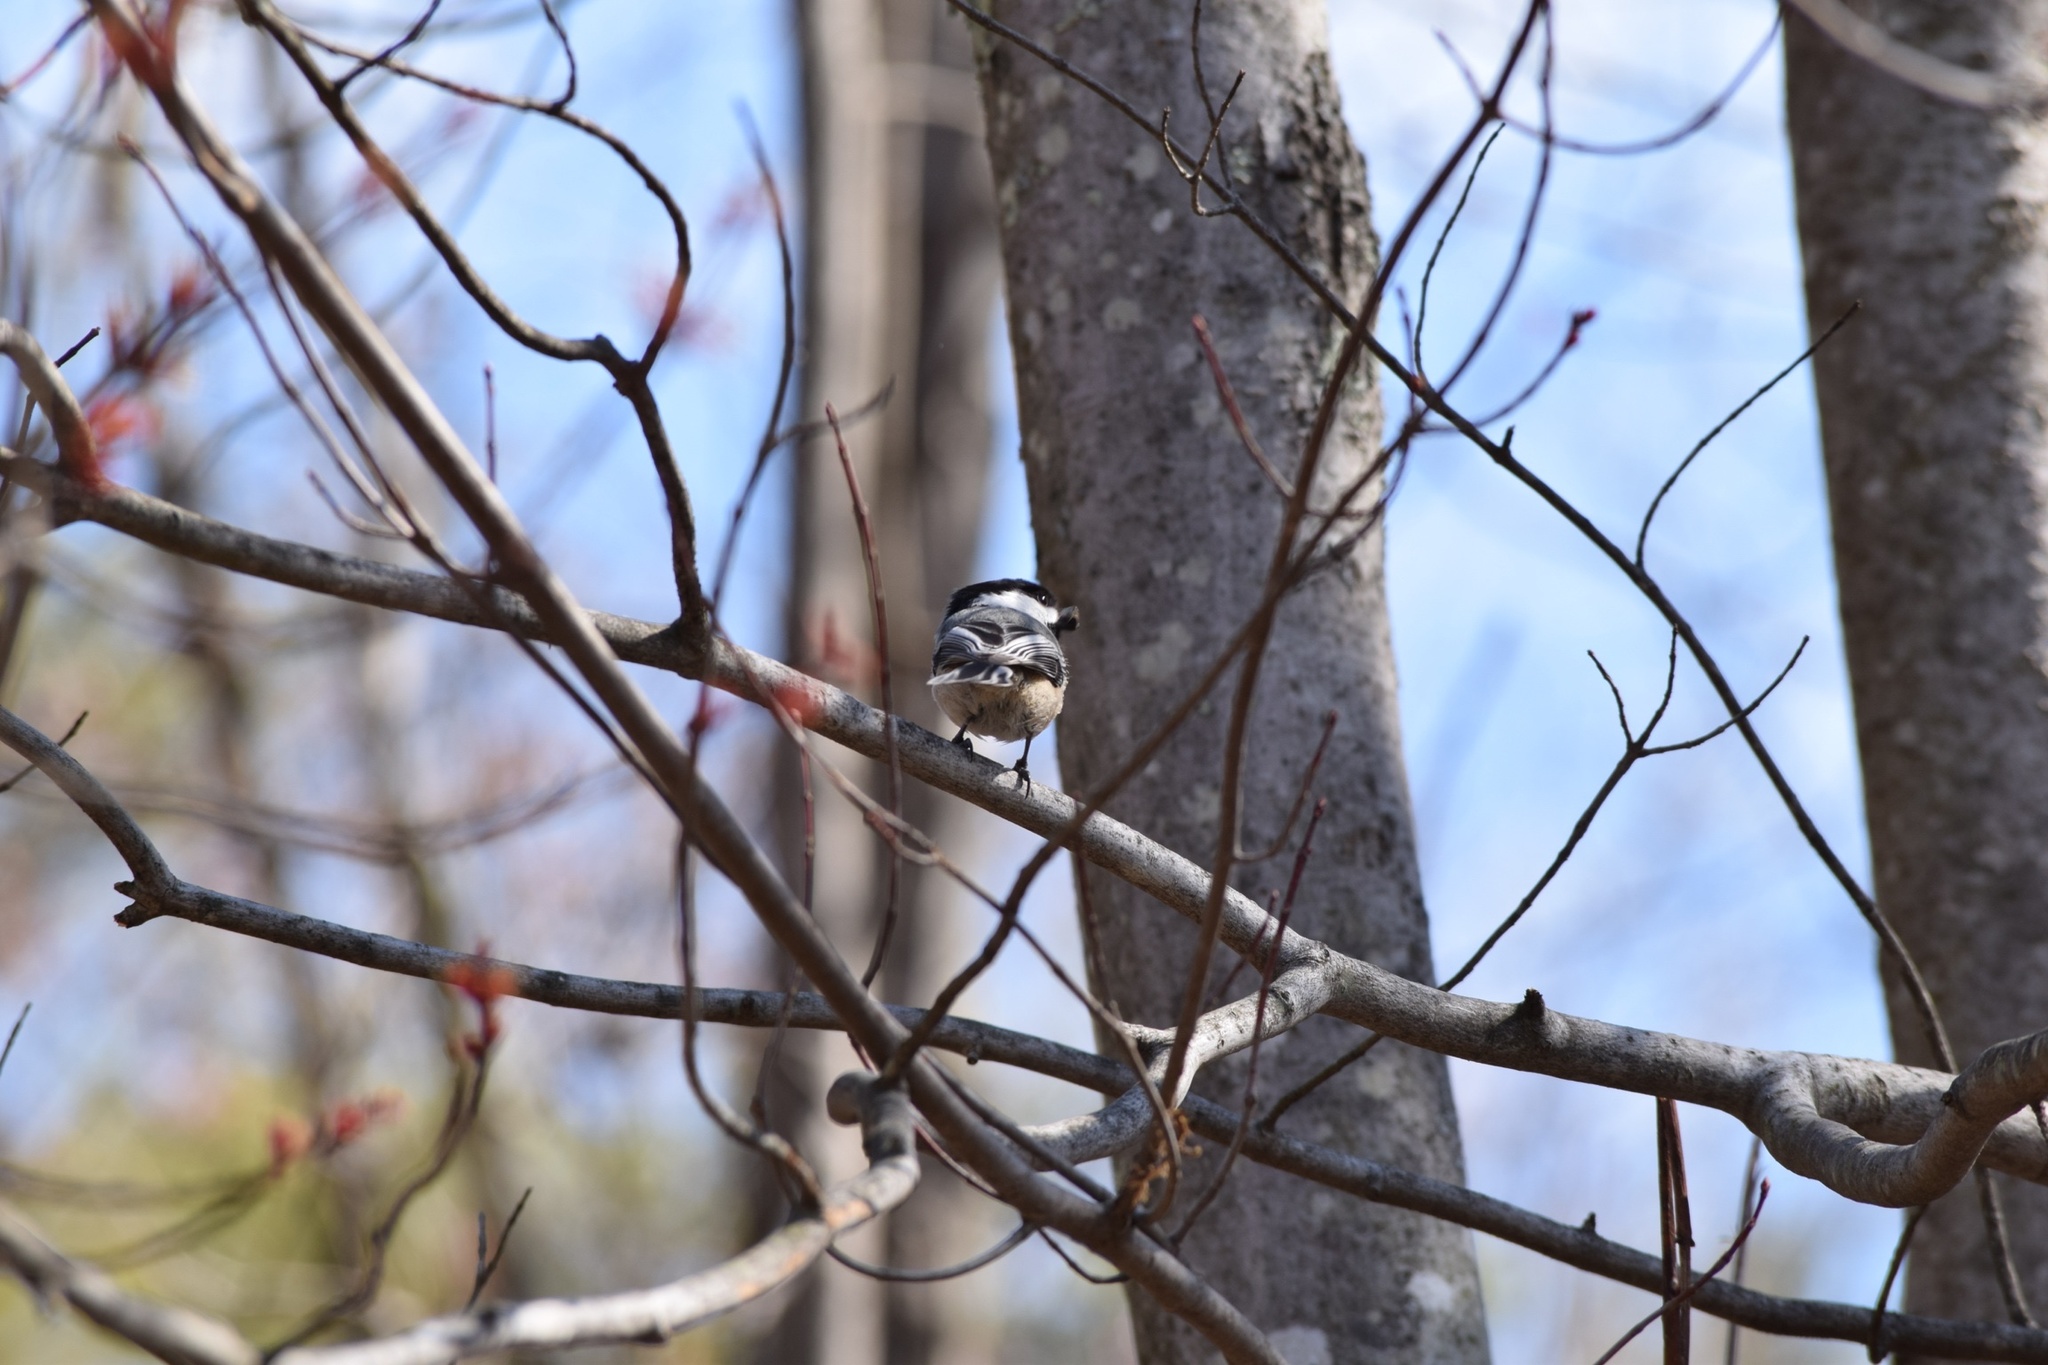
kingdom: Animalia
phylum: Chordata
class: Aves
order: Passeriformes
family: Paridae
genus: Poecile
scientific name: Poecile atricapillus
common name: Black-capped chickadee
